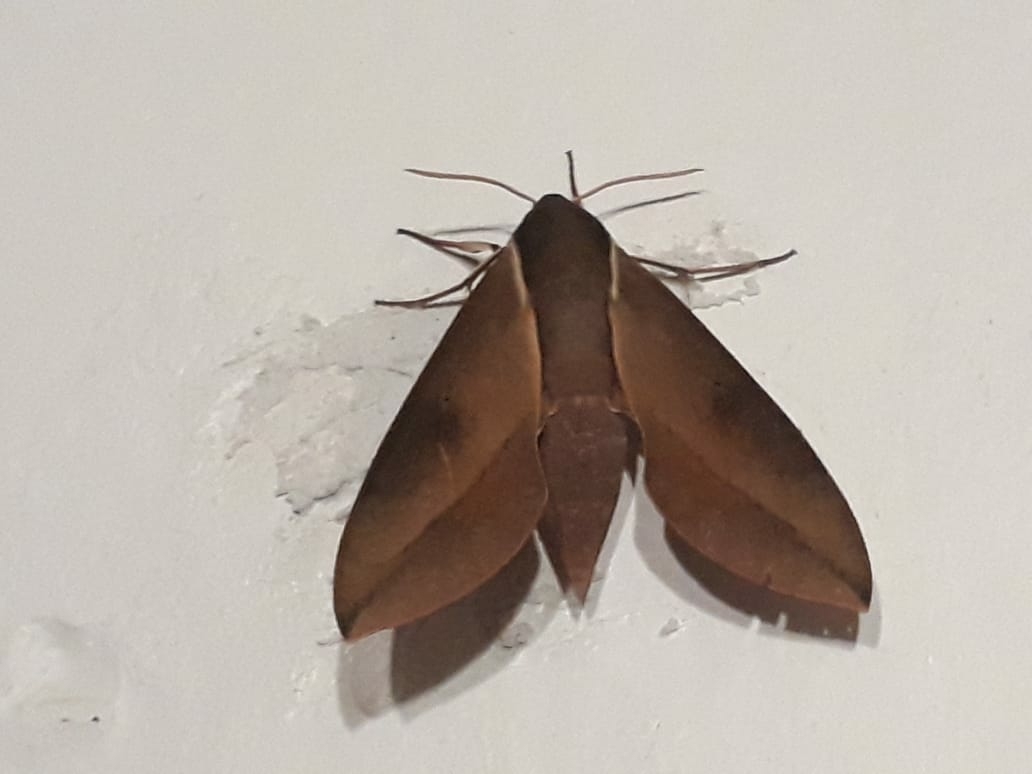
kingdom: Animalia
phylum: Arthropoda
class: Insecta
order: Lepidoptera
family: Sphingidae
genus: Theretra
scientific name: Theretra capensis
